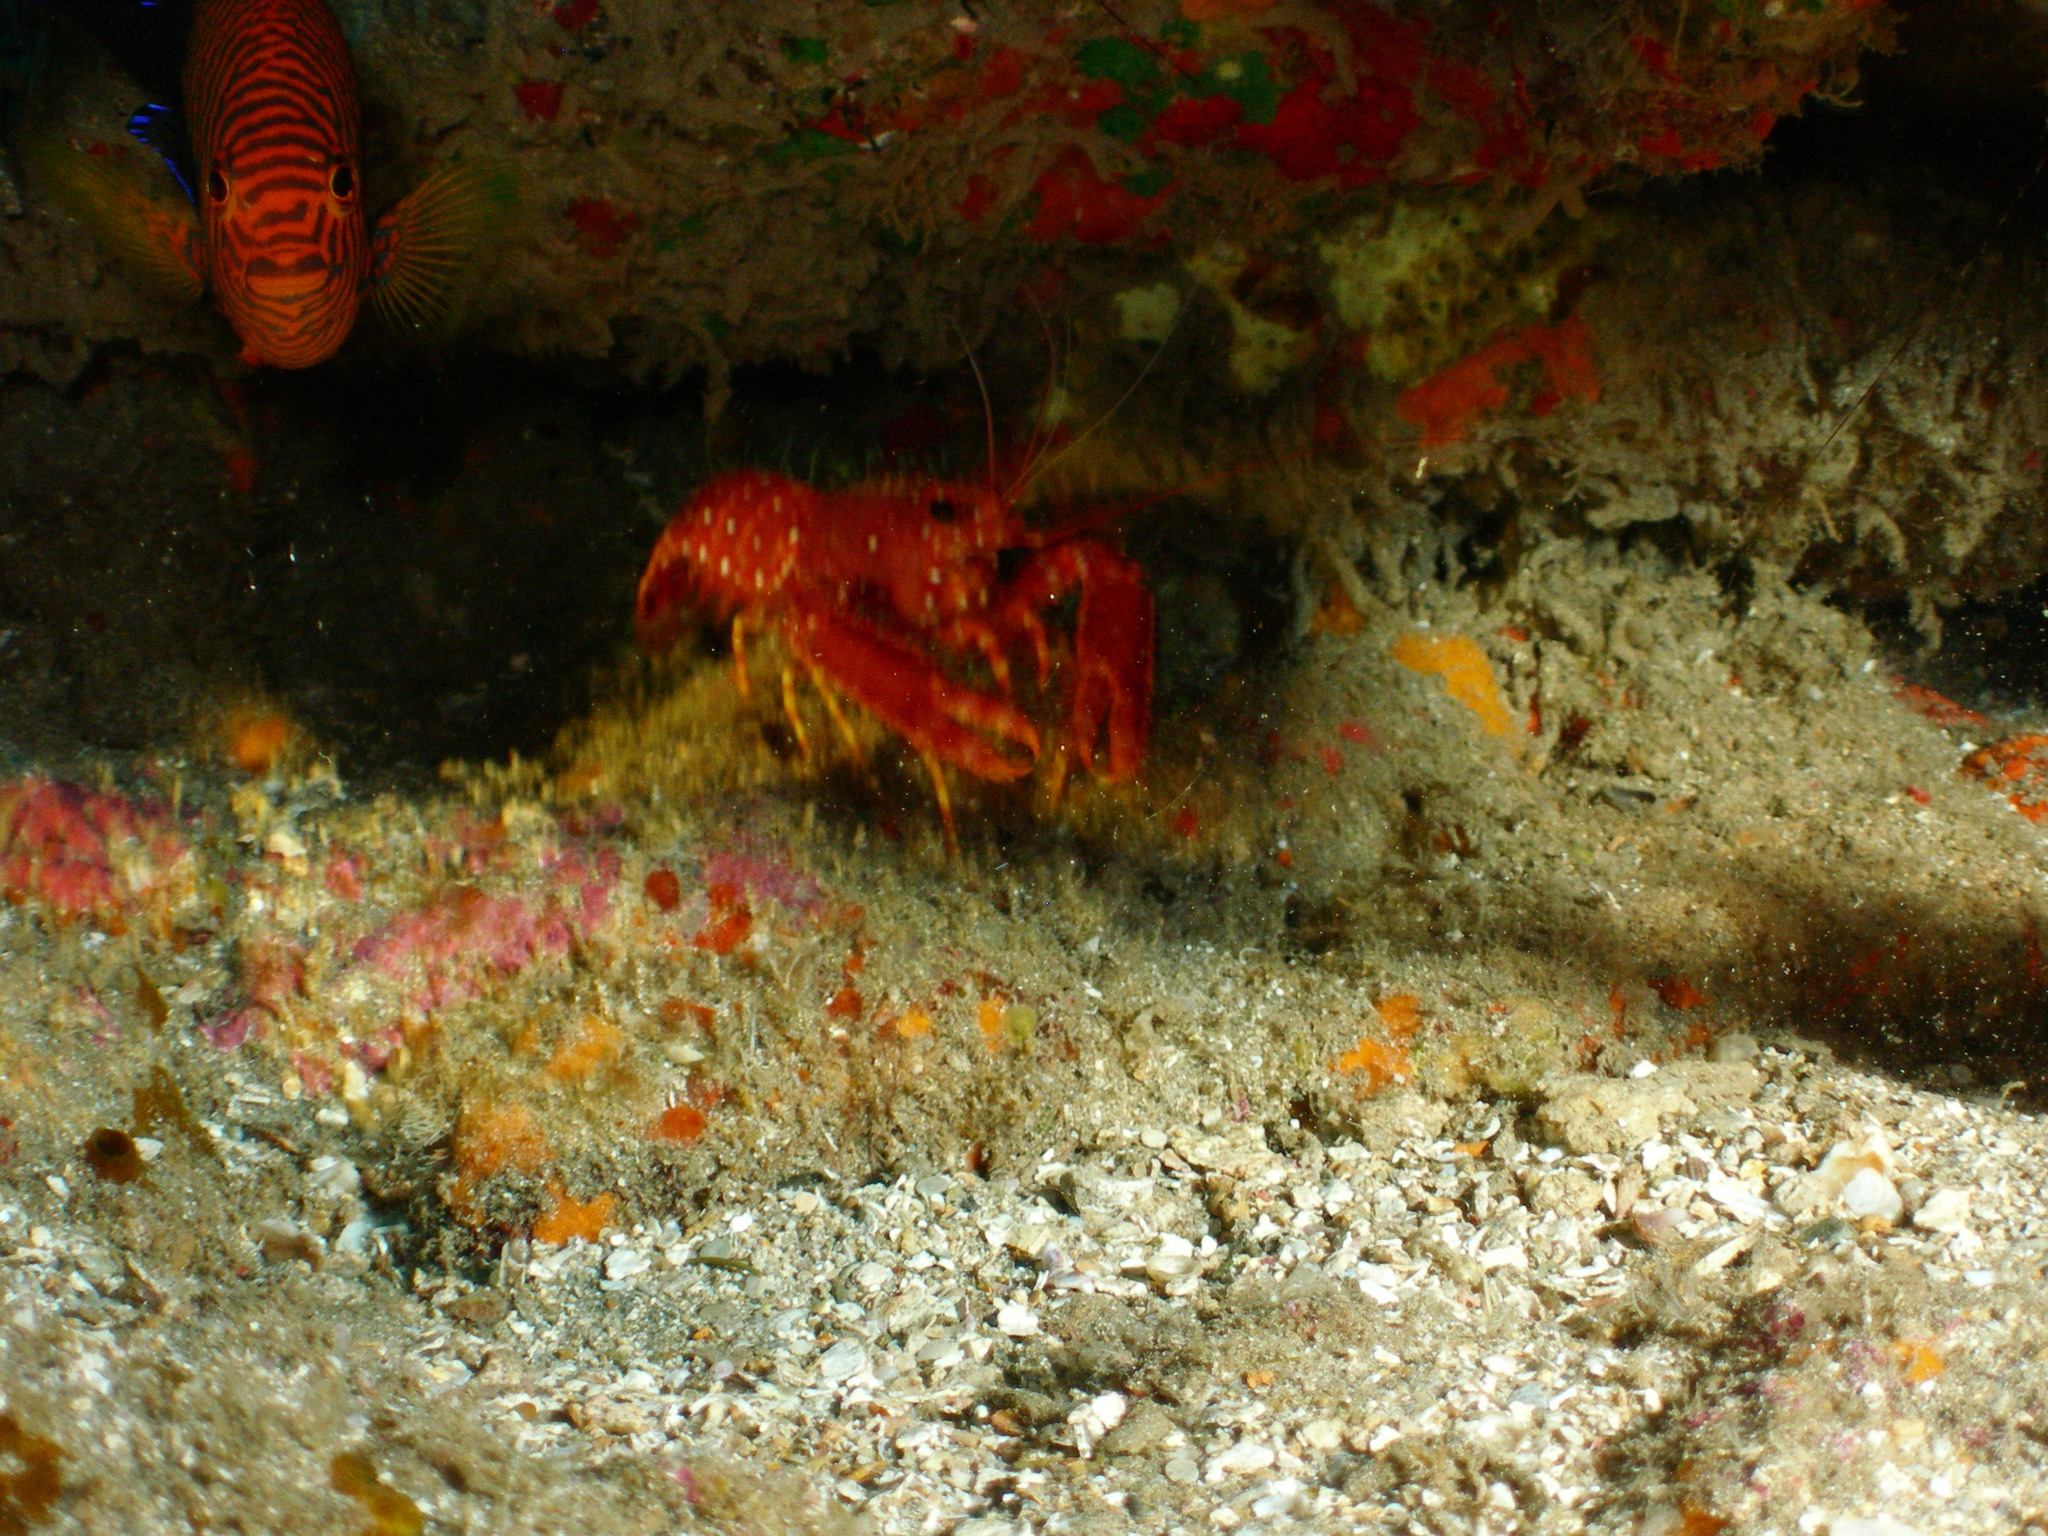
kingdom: Animalia
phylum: Arthropoda
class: Malacostraca
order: Decapoda
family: Enoplometopidae
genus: Enoplometopus
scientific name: Enoplometopus occidentalis
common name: Hawaiian red lobster
